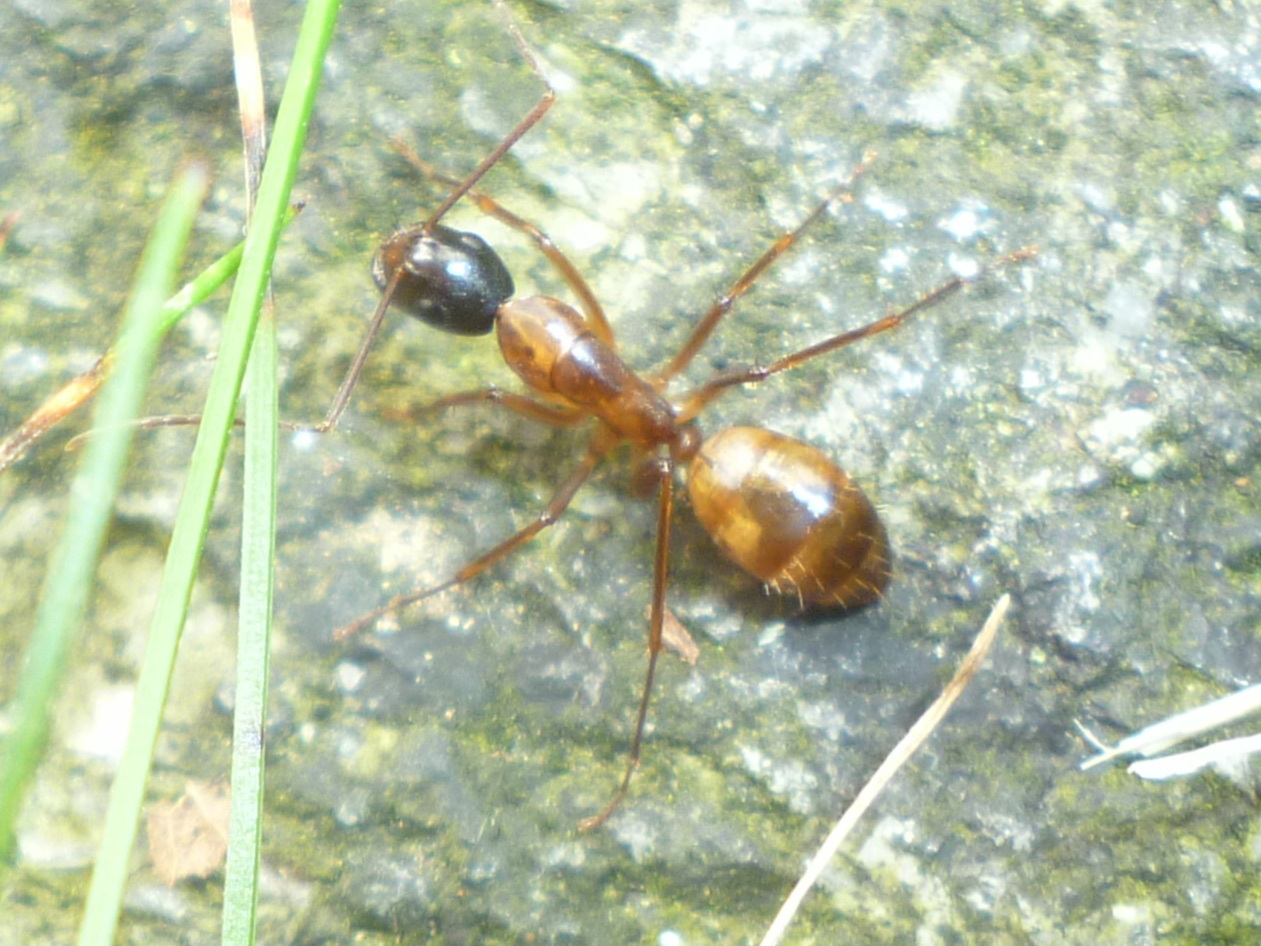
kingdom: Animalia
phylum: Arthropoda
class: Insecta
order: Hymenoptera
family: Formicidae
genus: Camponotus
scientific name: Camponotus americanus
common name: American carpenter ant
